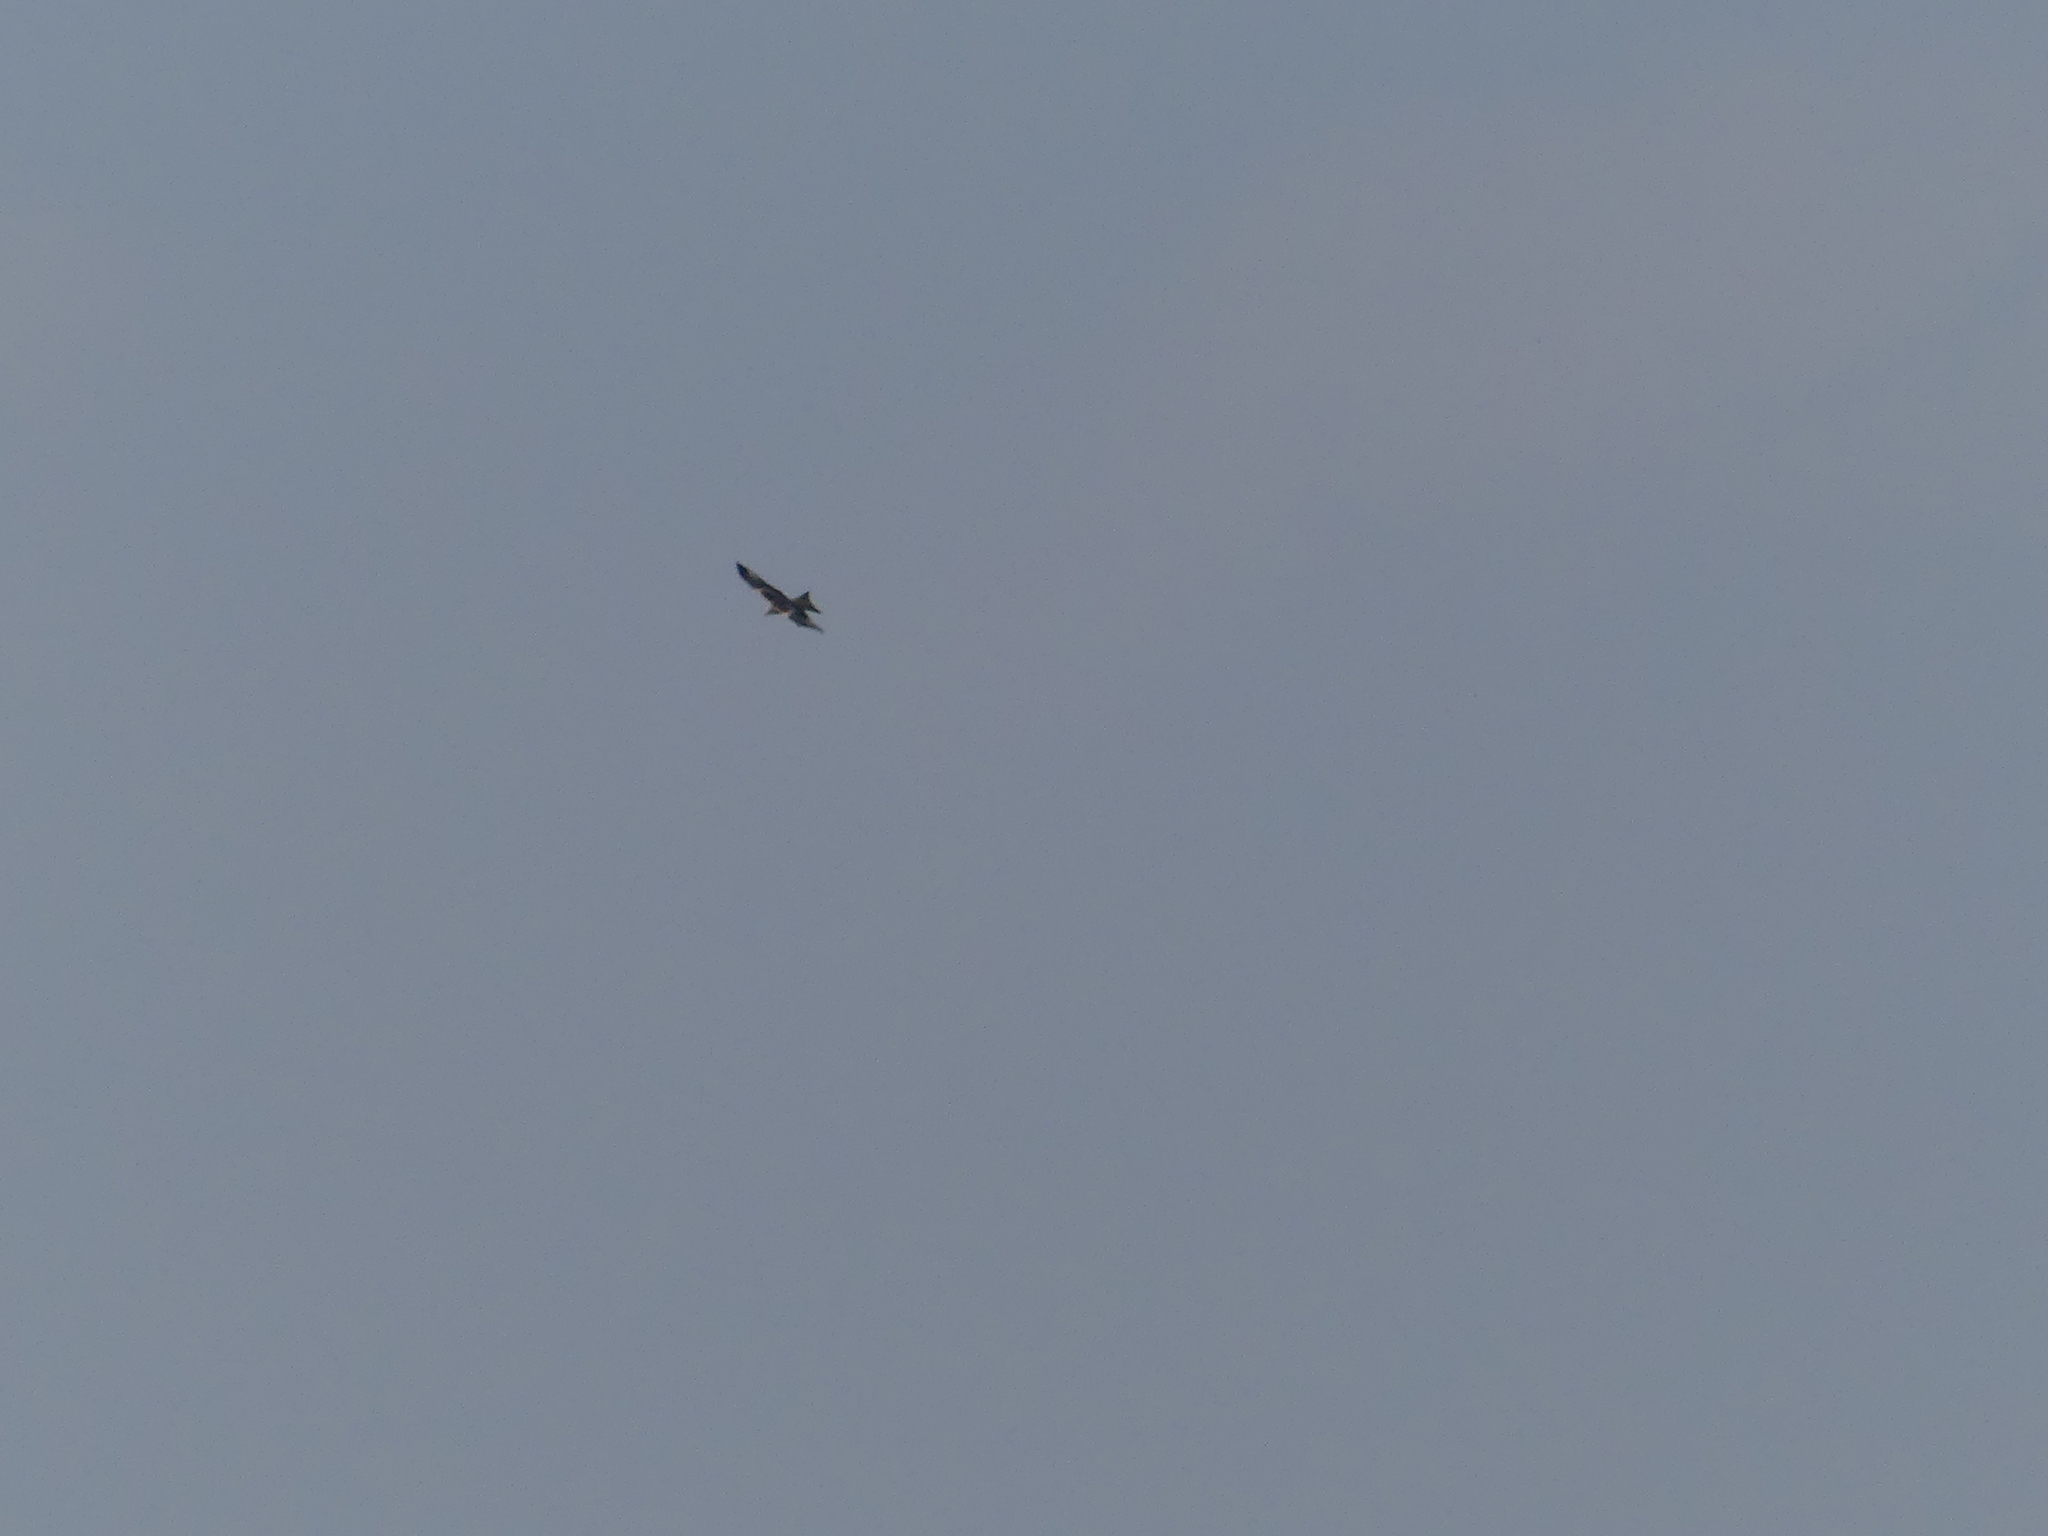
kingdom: Animalia
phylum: Chordata
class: Aves
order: Accipitriformes
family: Accipitridae
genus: Milvus
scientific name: Milvus milvus
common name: Red kite
